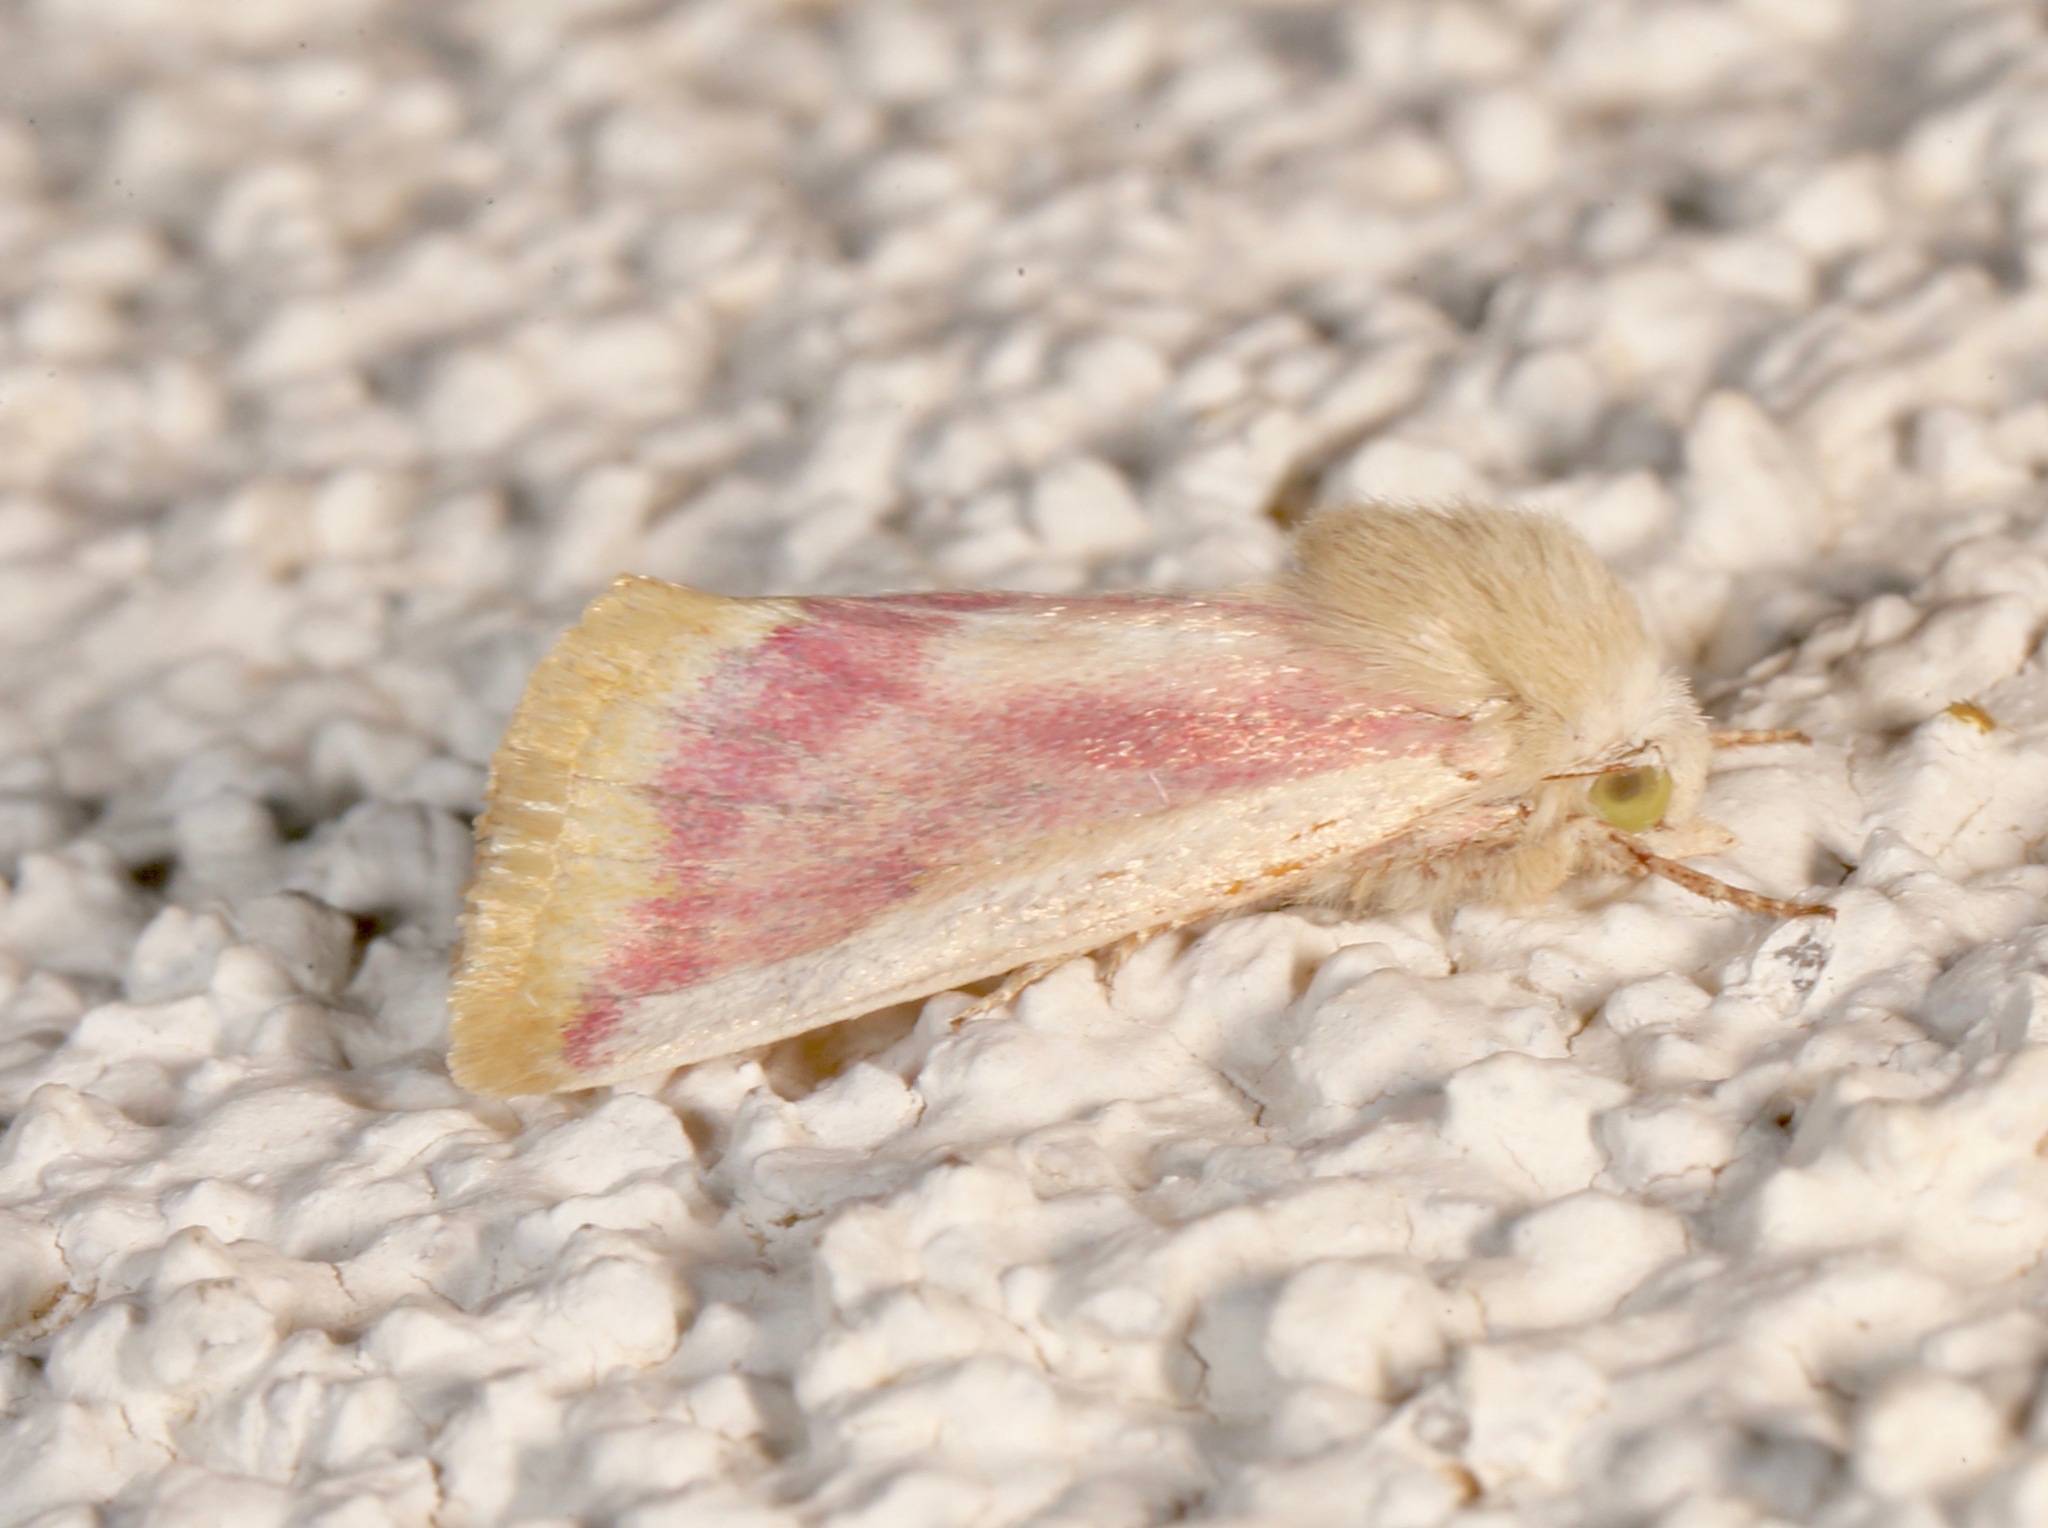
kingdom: Animalia
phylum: Arthropoda
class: Insecta
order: Lepidoptera
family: Noctuidae
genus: Schinia
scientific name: Schinia niveicosta
